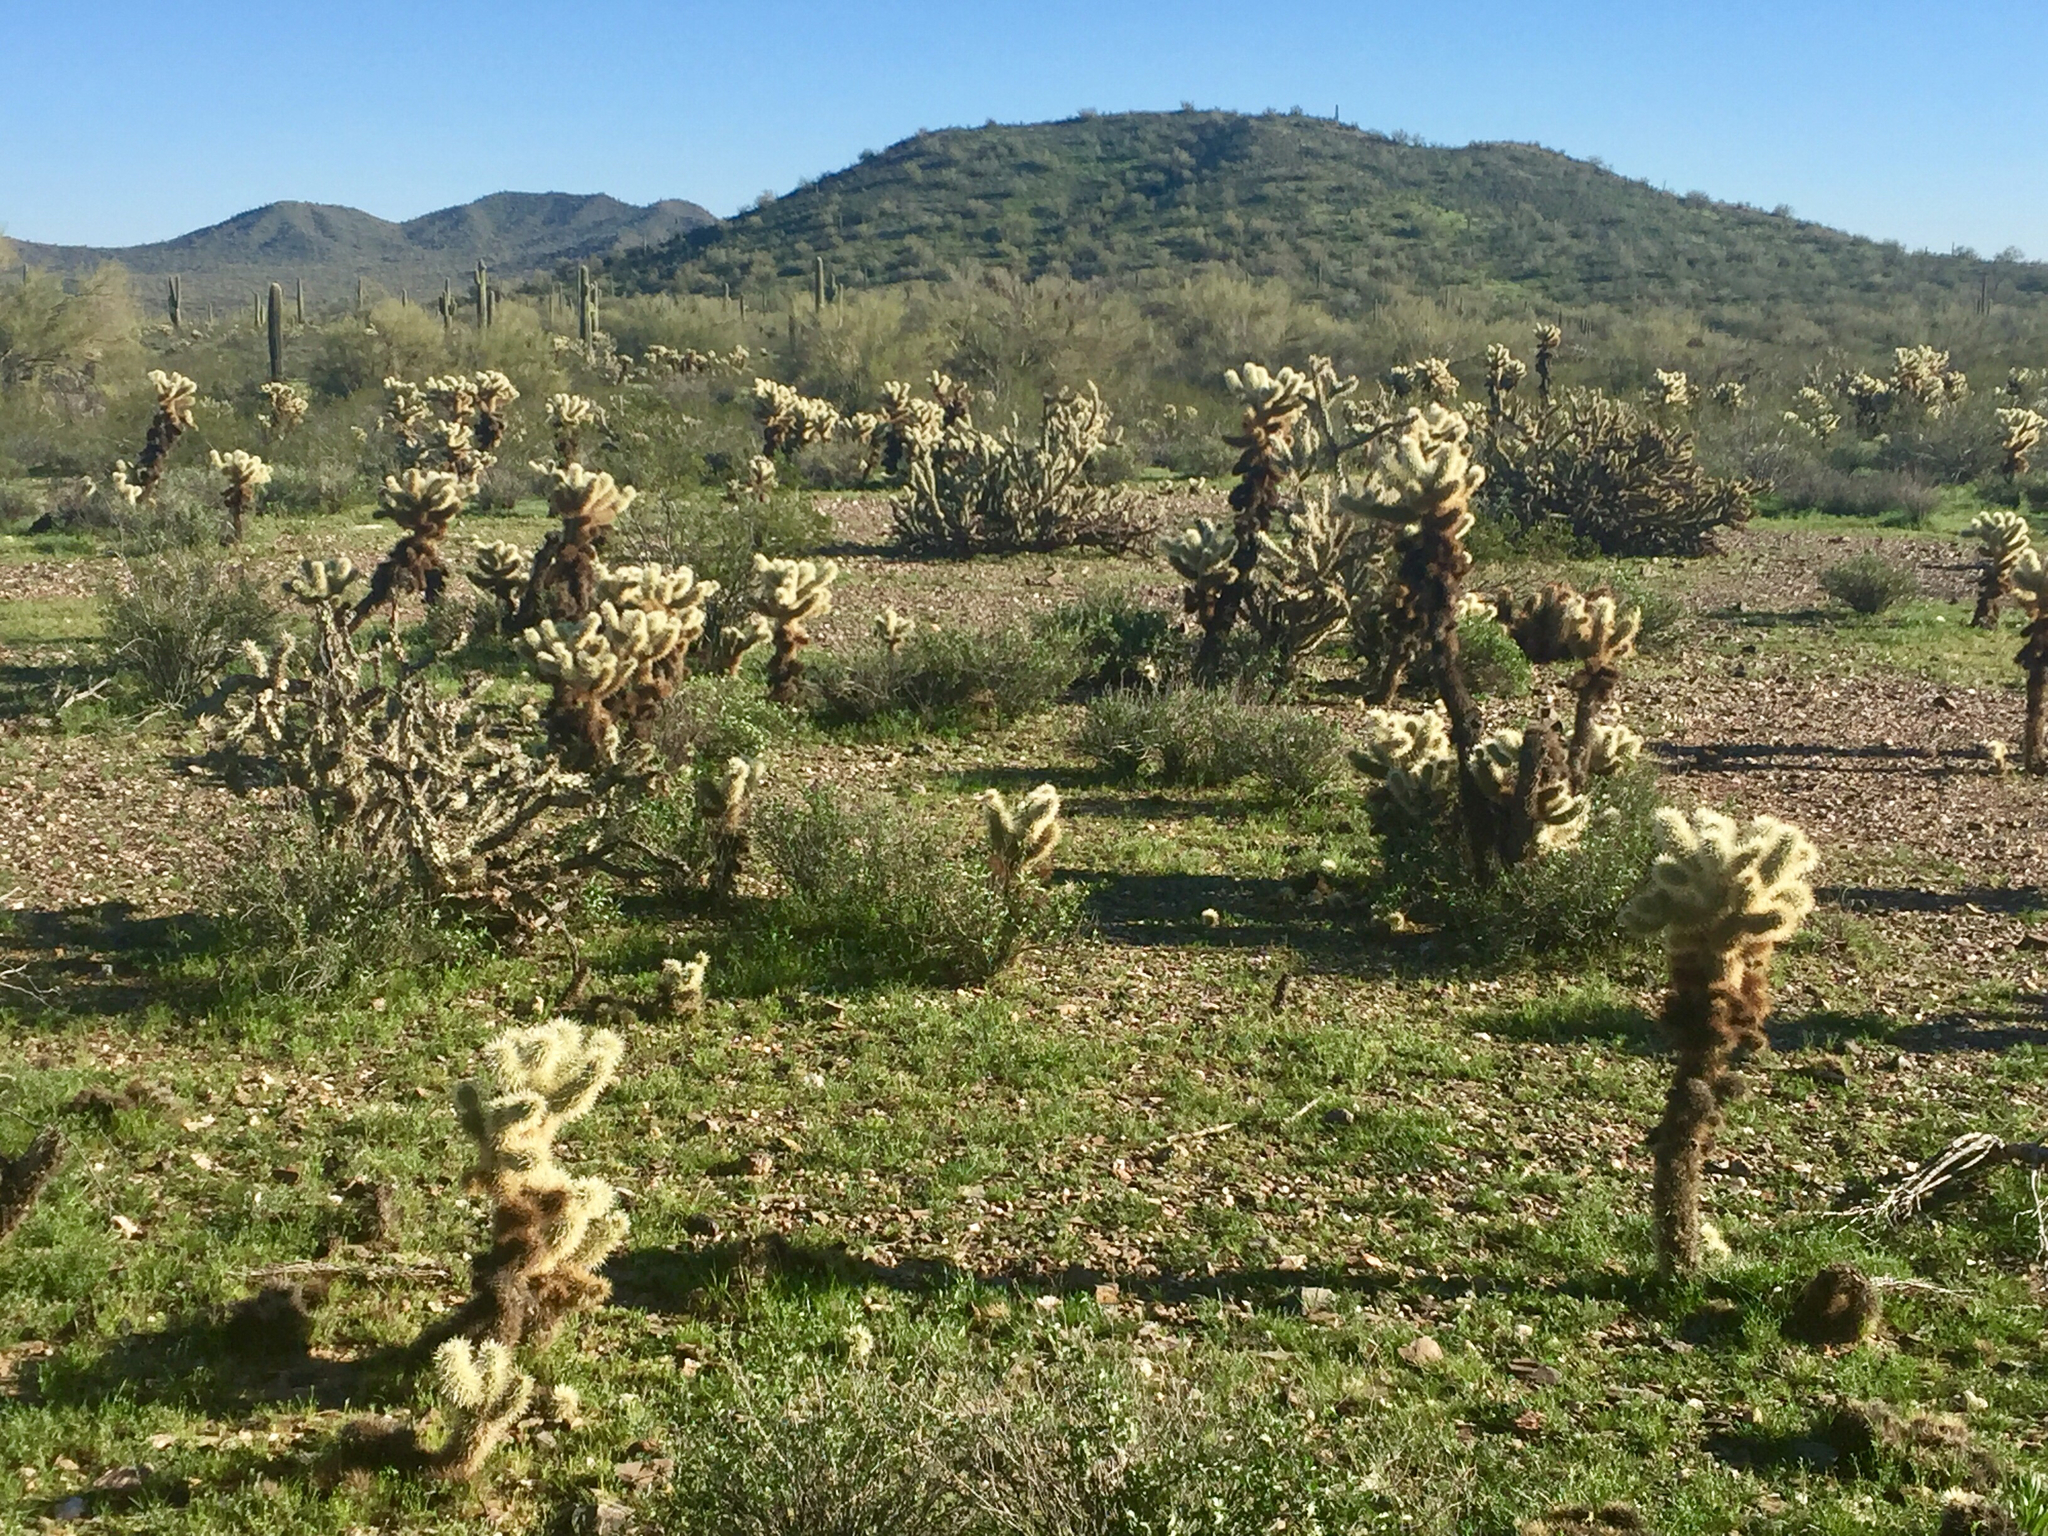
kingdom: Plantae
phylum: Tracheophyta
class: Magnoliopsida
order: Caryophyllales
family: Cactaceae
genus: Cylindropuntia
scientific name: Cylindropuntia fosbergii
